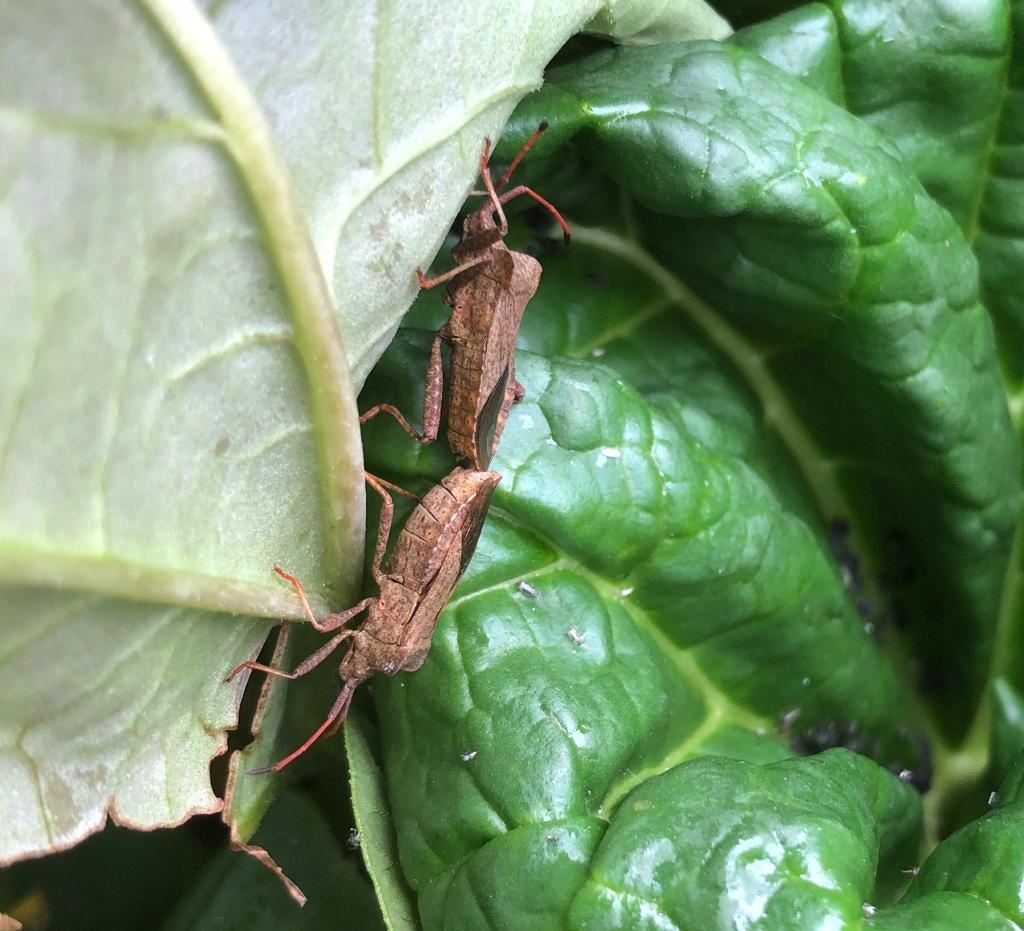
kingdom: Animalia
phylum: Arthropoda
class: Insecta
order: Hemiptera
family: Coreidae
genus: Coreus
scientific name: Coreus marginatus
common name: Dock bug
